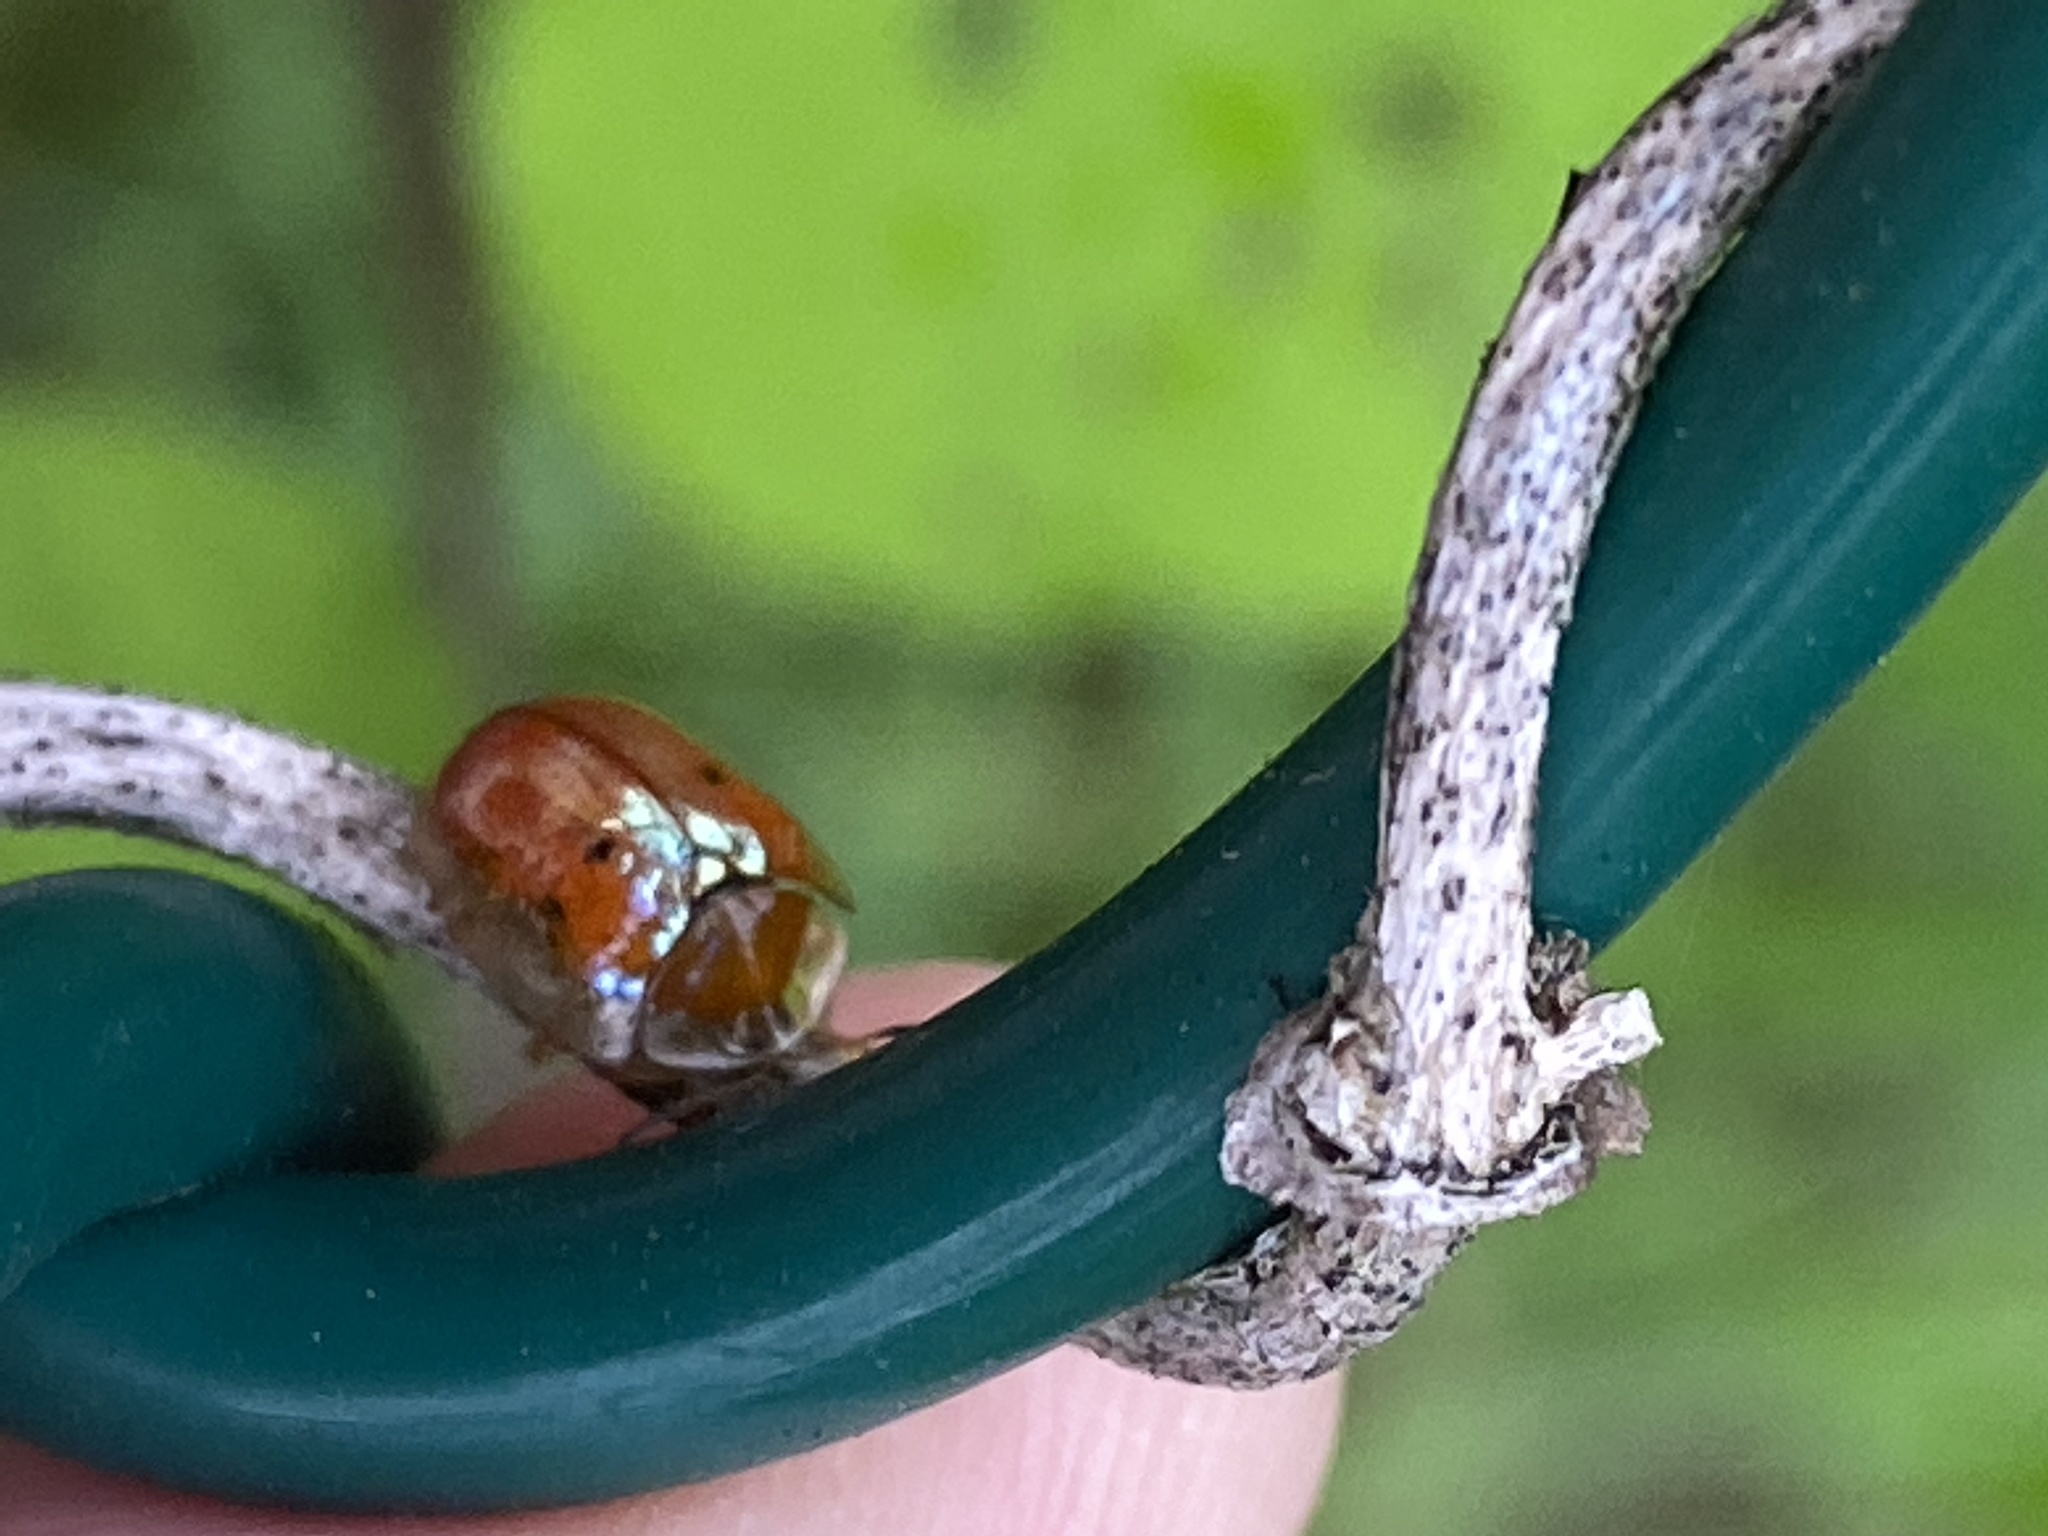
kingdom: Animalia
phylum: Arthropoda
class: Insecta
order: Coleoptera
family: Chrysomelidae
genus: Charidotella
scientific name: Charidotella sexpunctata
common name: Golden tortoise beetle
